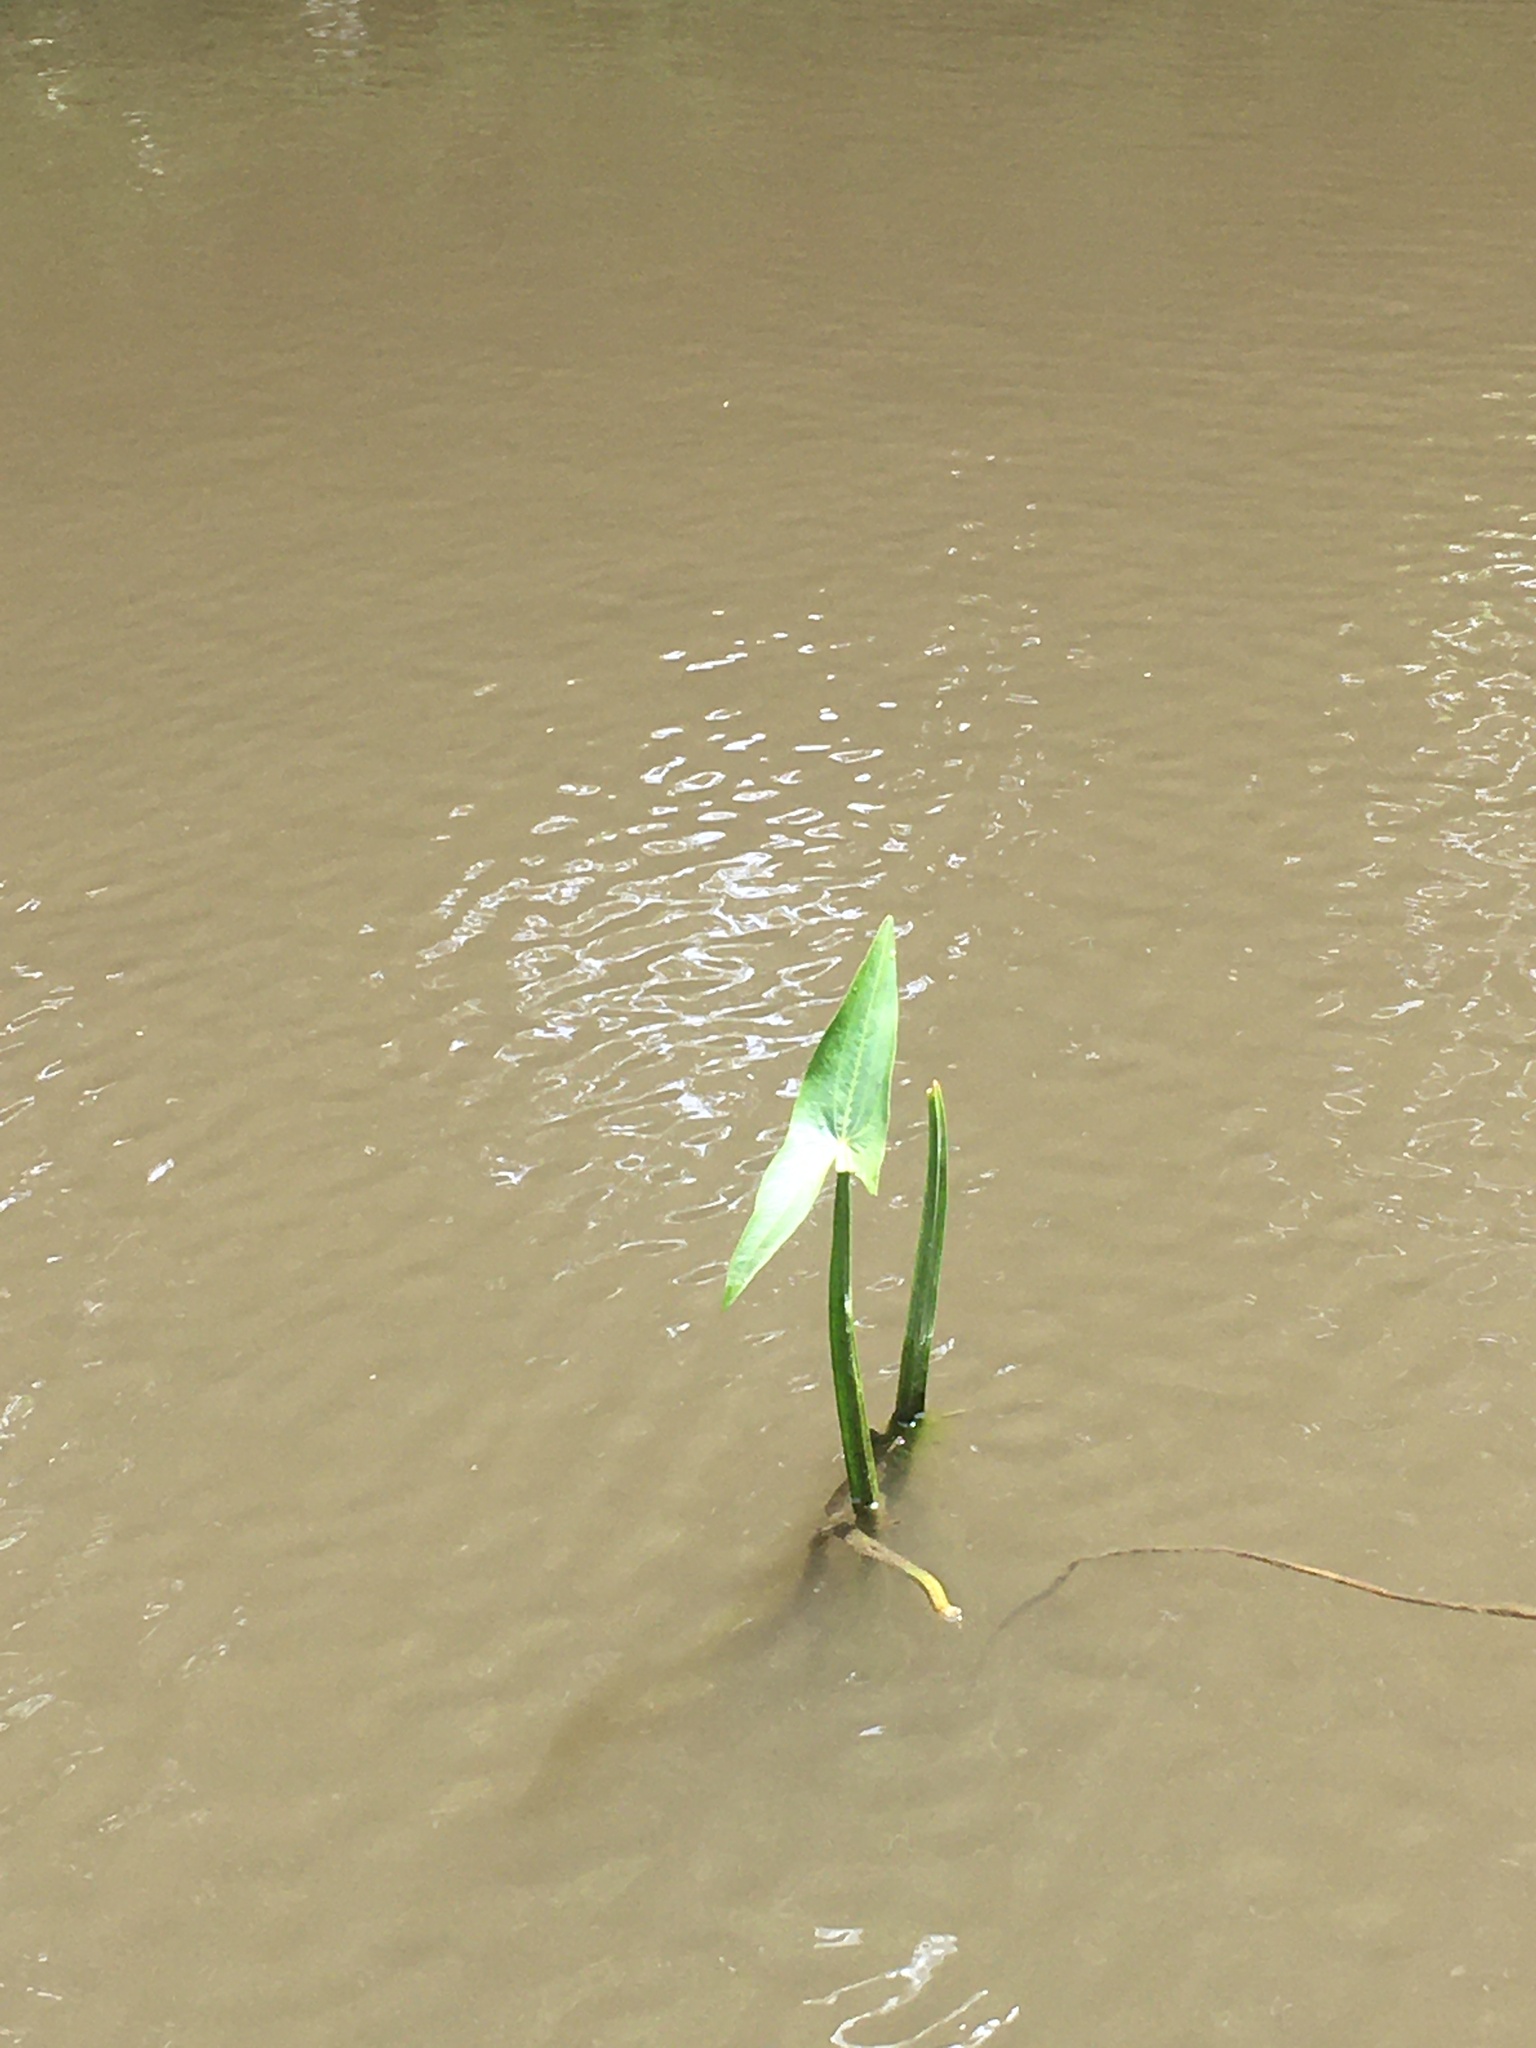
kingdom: Plantae
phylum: Tracheophyta
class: Liliopsida
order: Alismatales
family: Alismataceae
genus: Sagittaria
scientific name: Sagittaria sagittifolia
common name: Arrowhead
